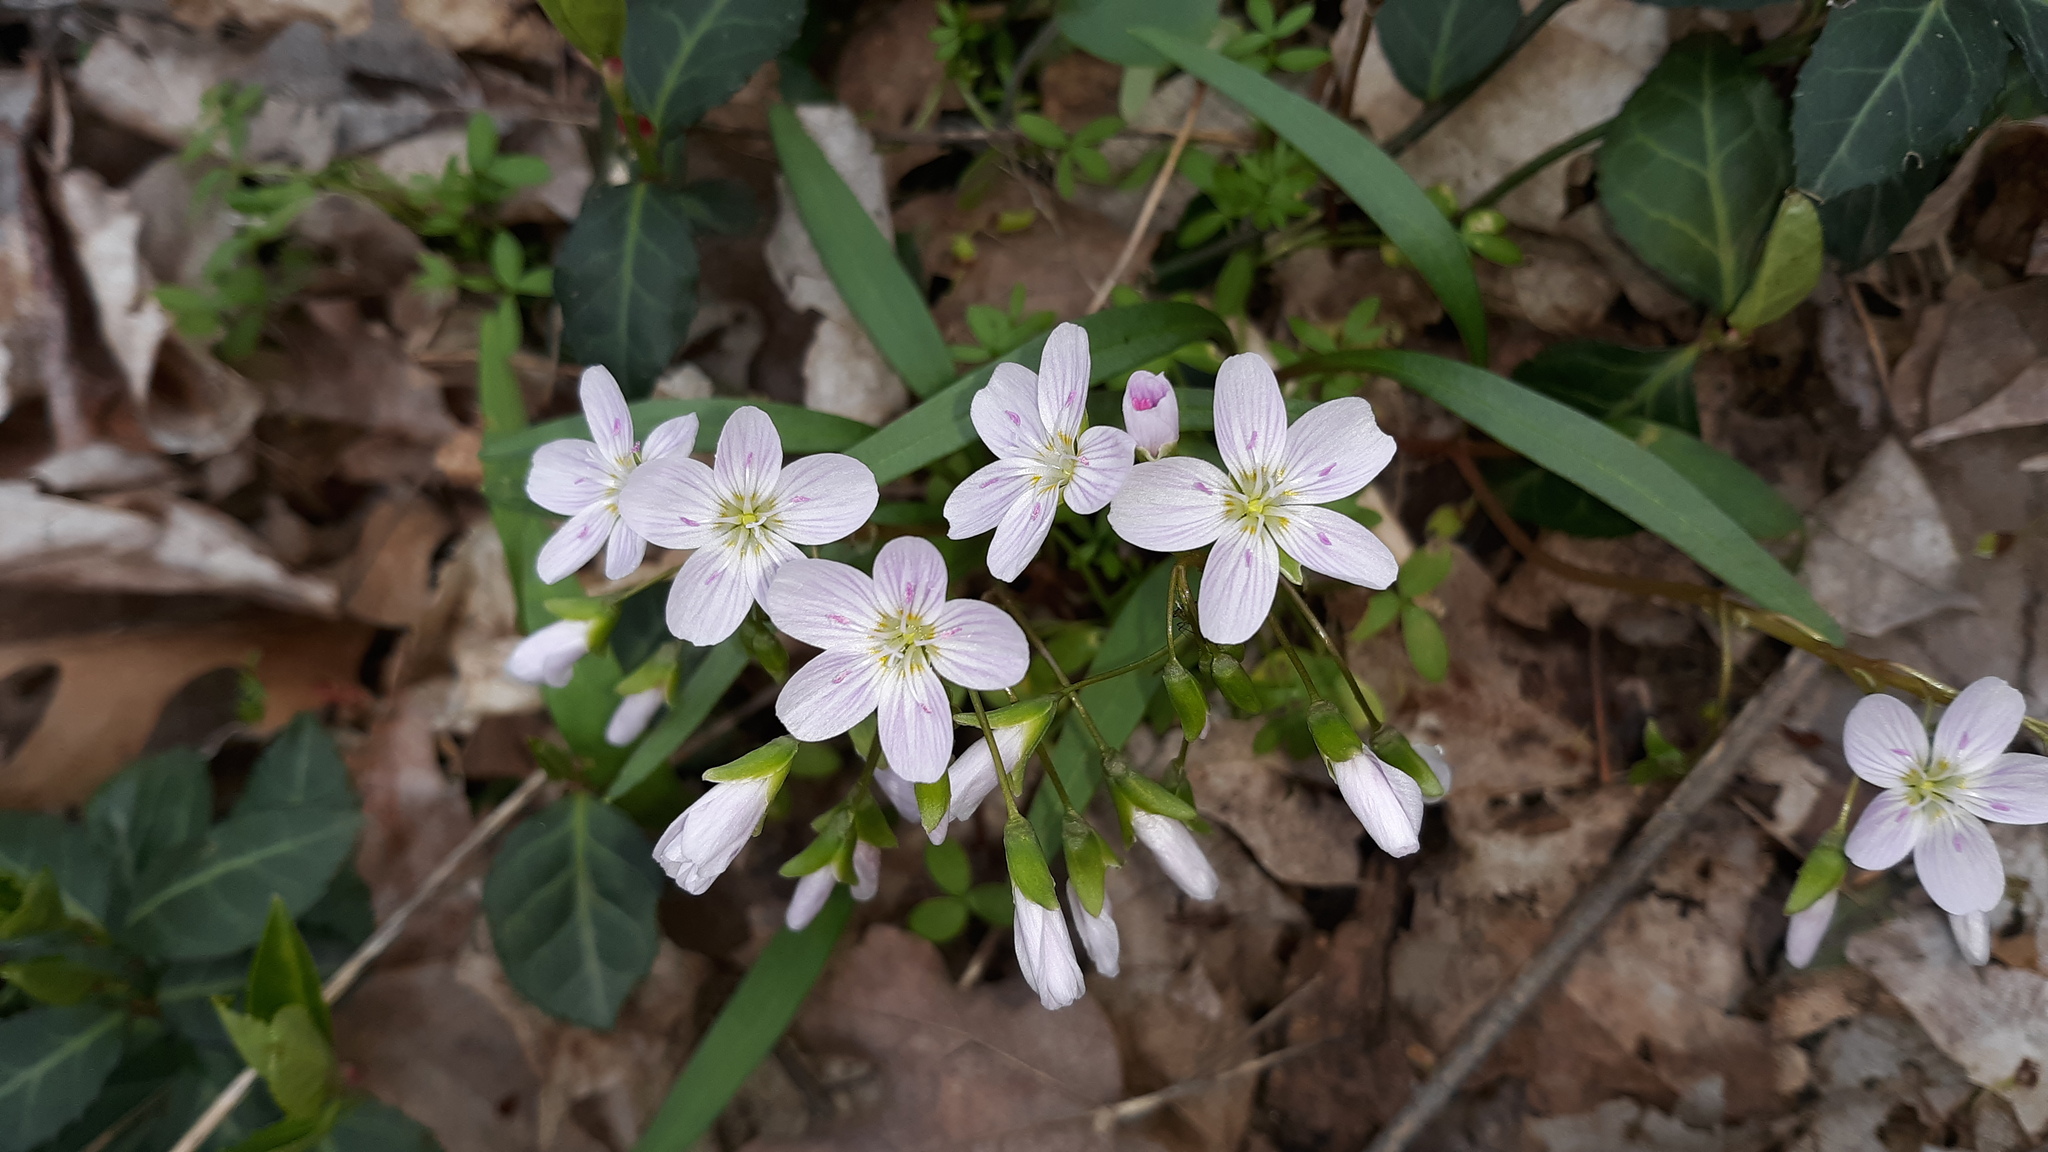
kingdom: Plantae
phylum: Tracheophyta
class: Magnoliopsida
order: Caryophyllales
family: Montiaceae
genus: Claytonia
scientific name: Claytonia virginica
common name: Virginia springbeauty
